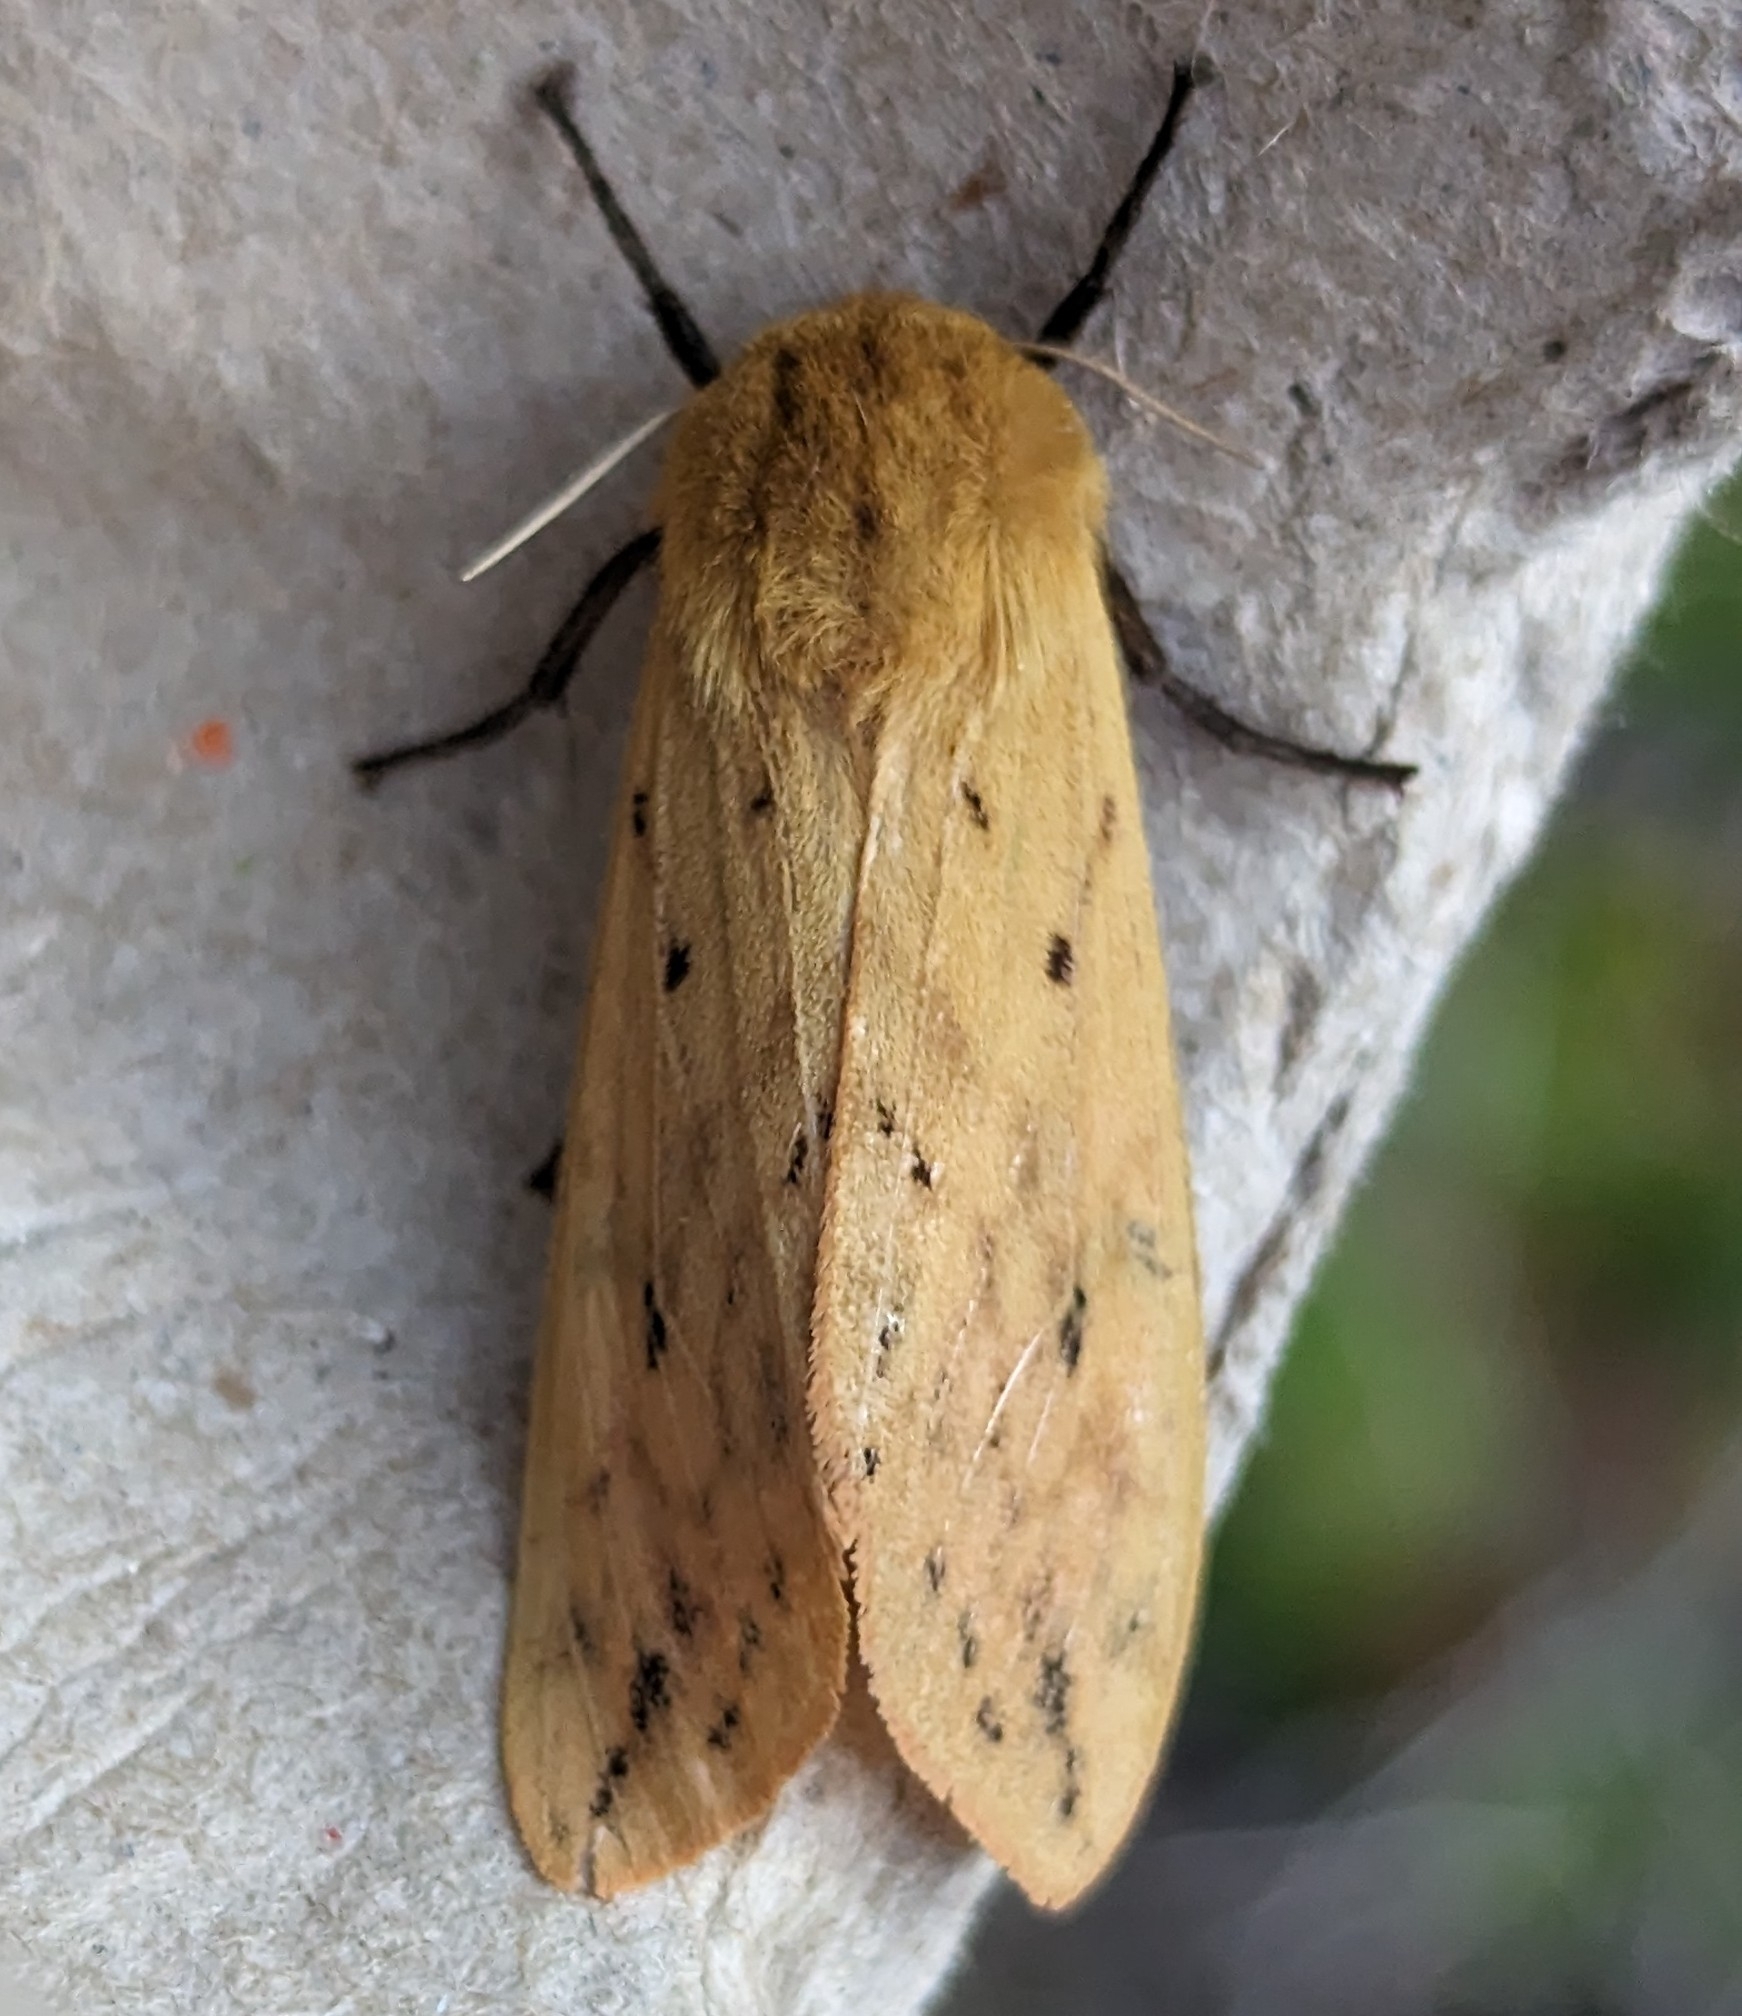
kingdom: Animalia
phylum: Arthropoda
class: Insecta
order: Lepidoptera
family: Erebidae
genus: Pyrrharctia
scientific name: Pyrrharctia isabella
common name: Isabella tiger moth
